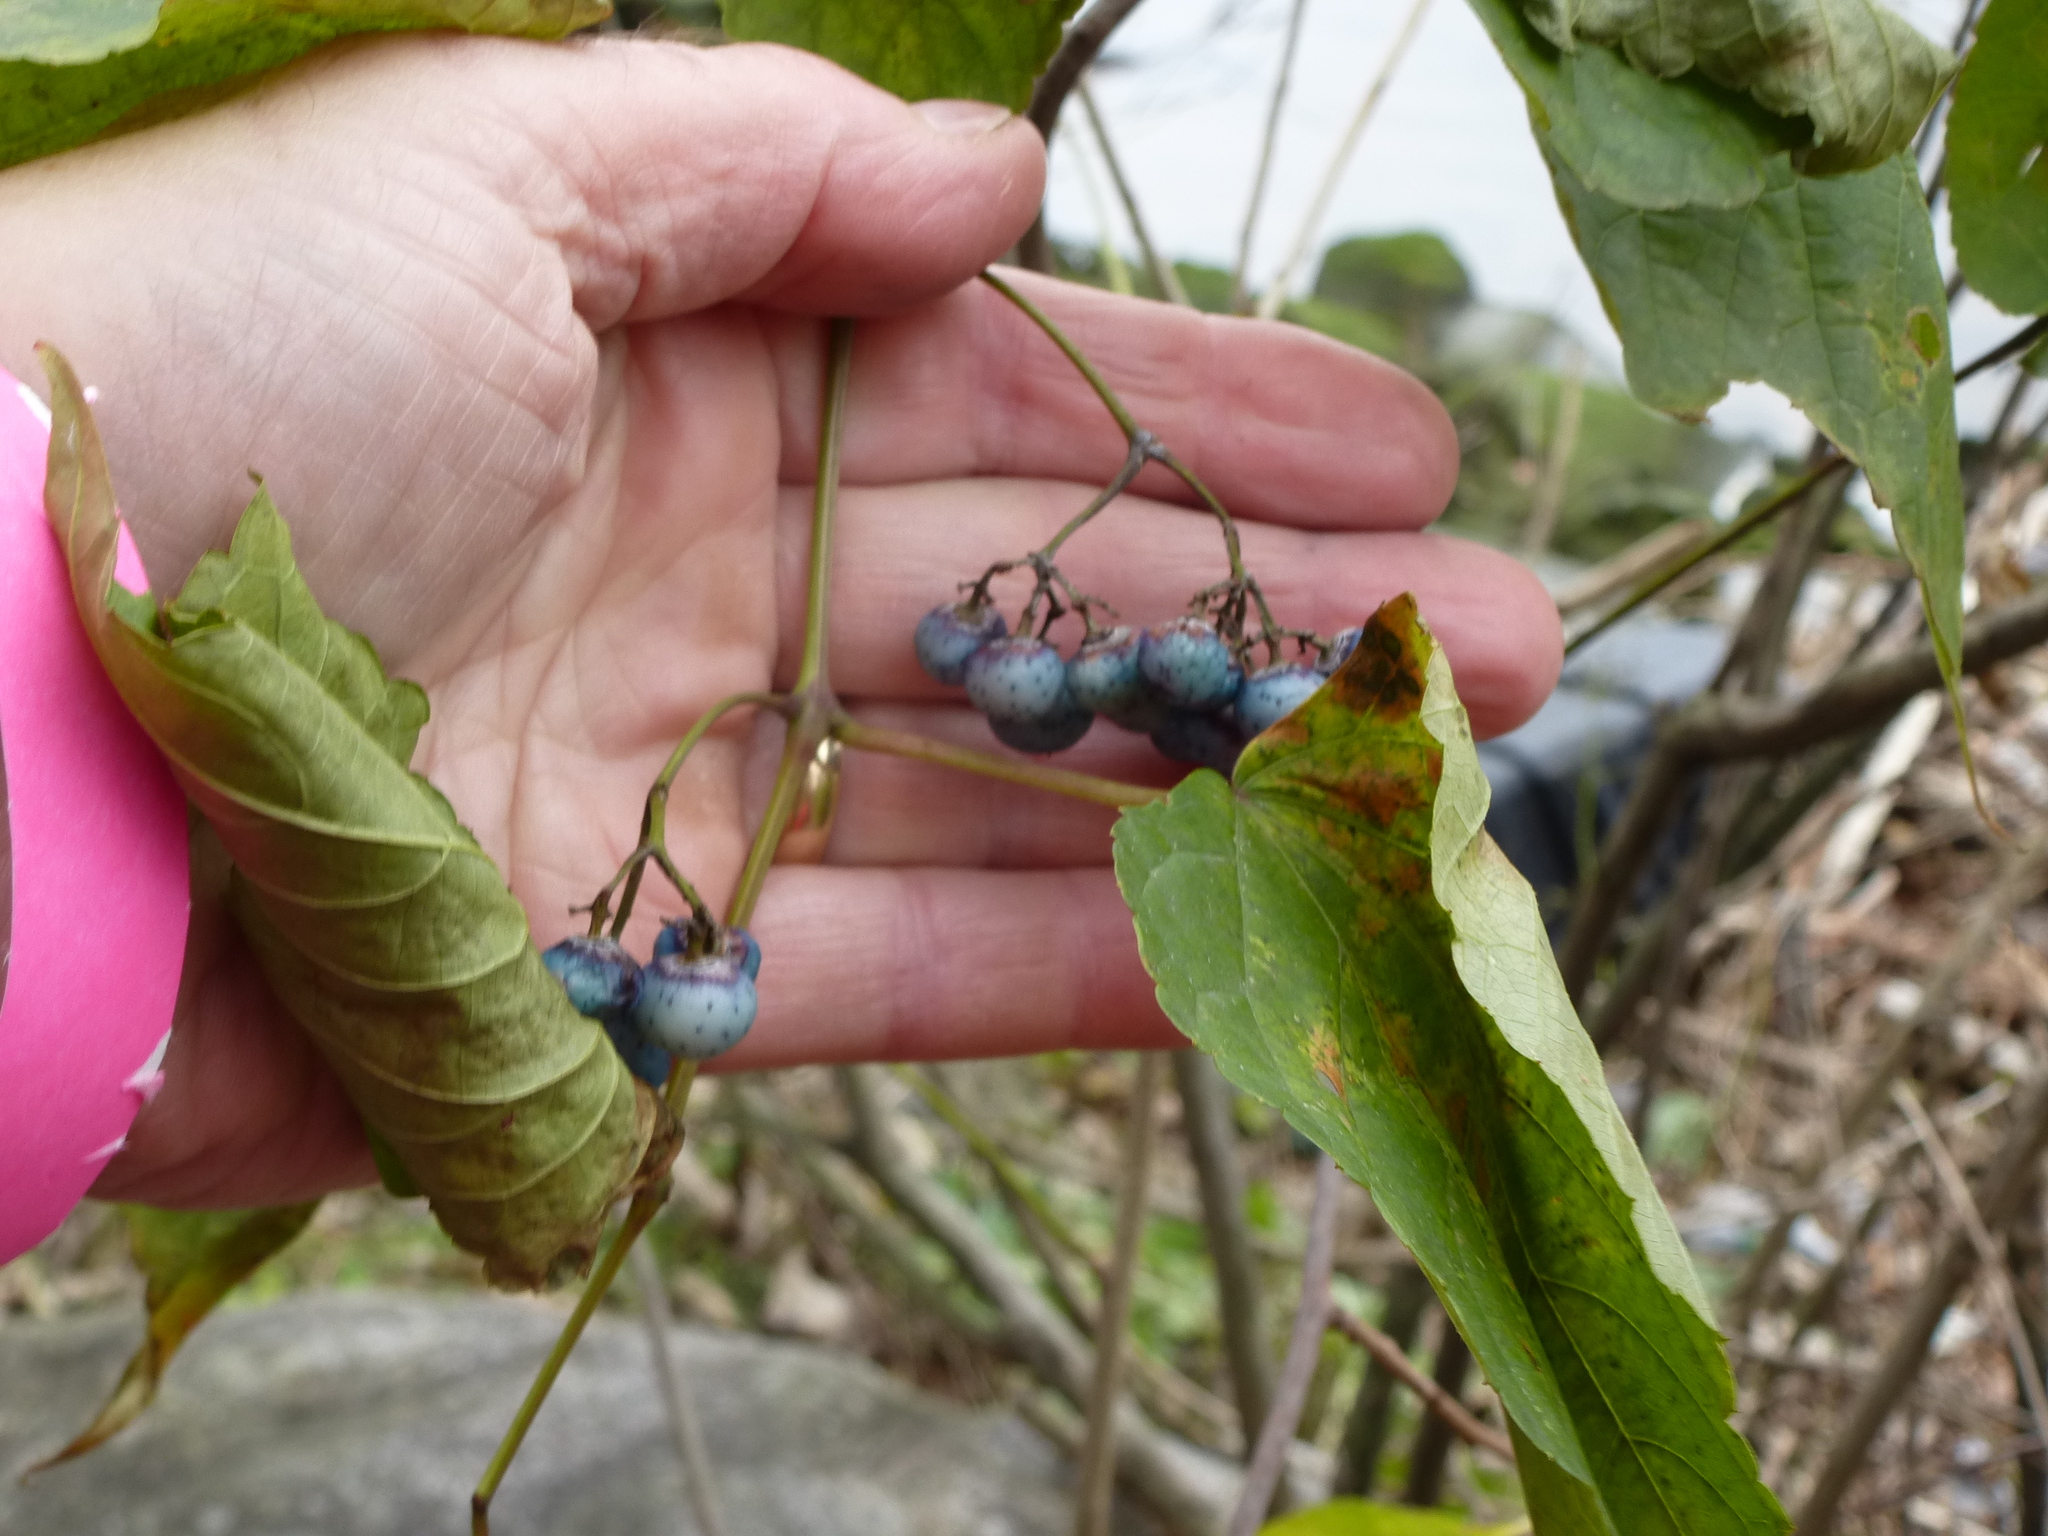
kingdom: Plantae
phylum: Tracheophyta
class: Magnoliopsida
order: Vitales
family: Vitaceae
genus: Ampelopsis
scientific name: Ampelopsis glandulosa
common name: Amur peppervine
